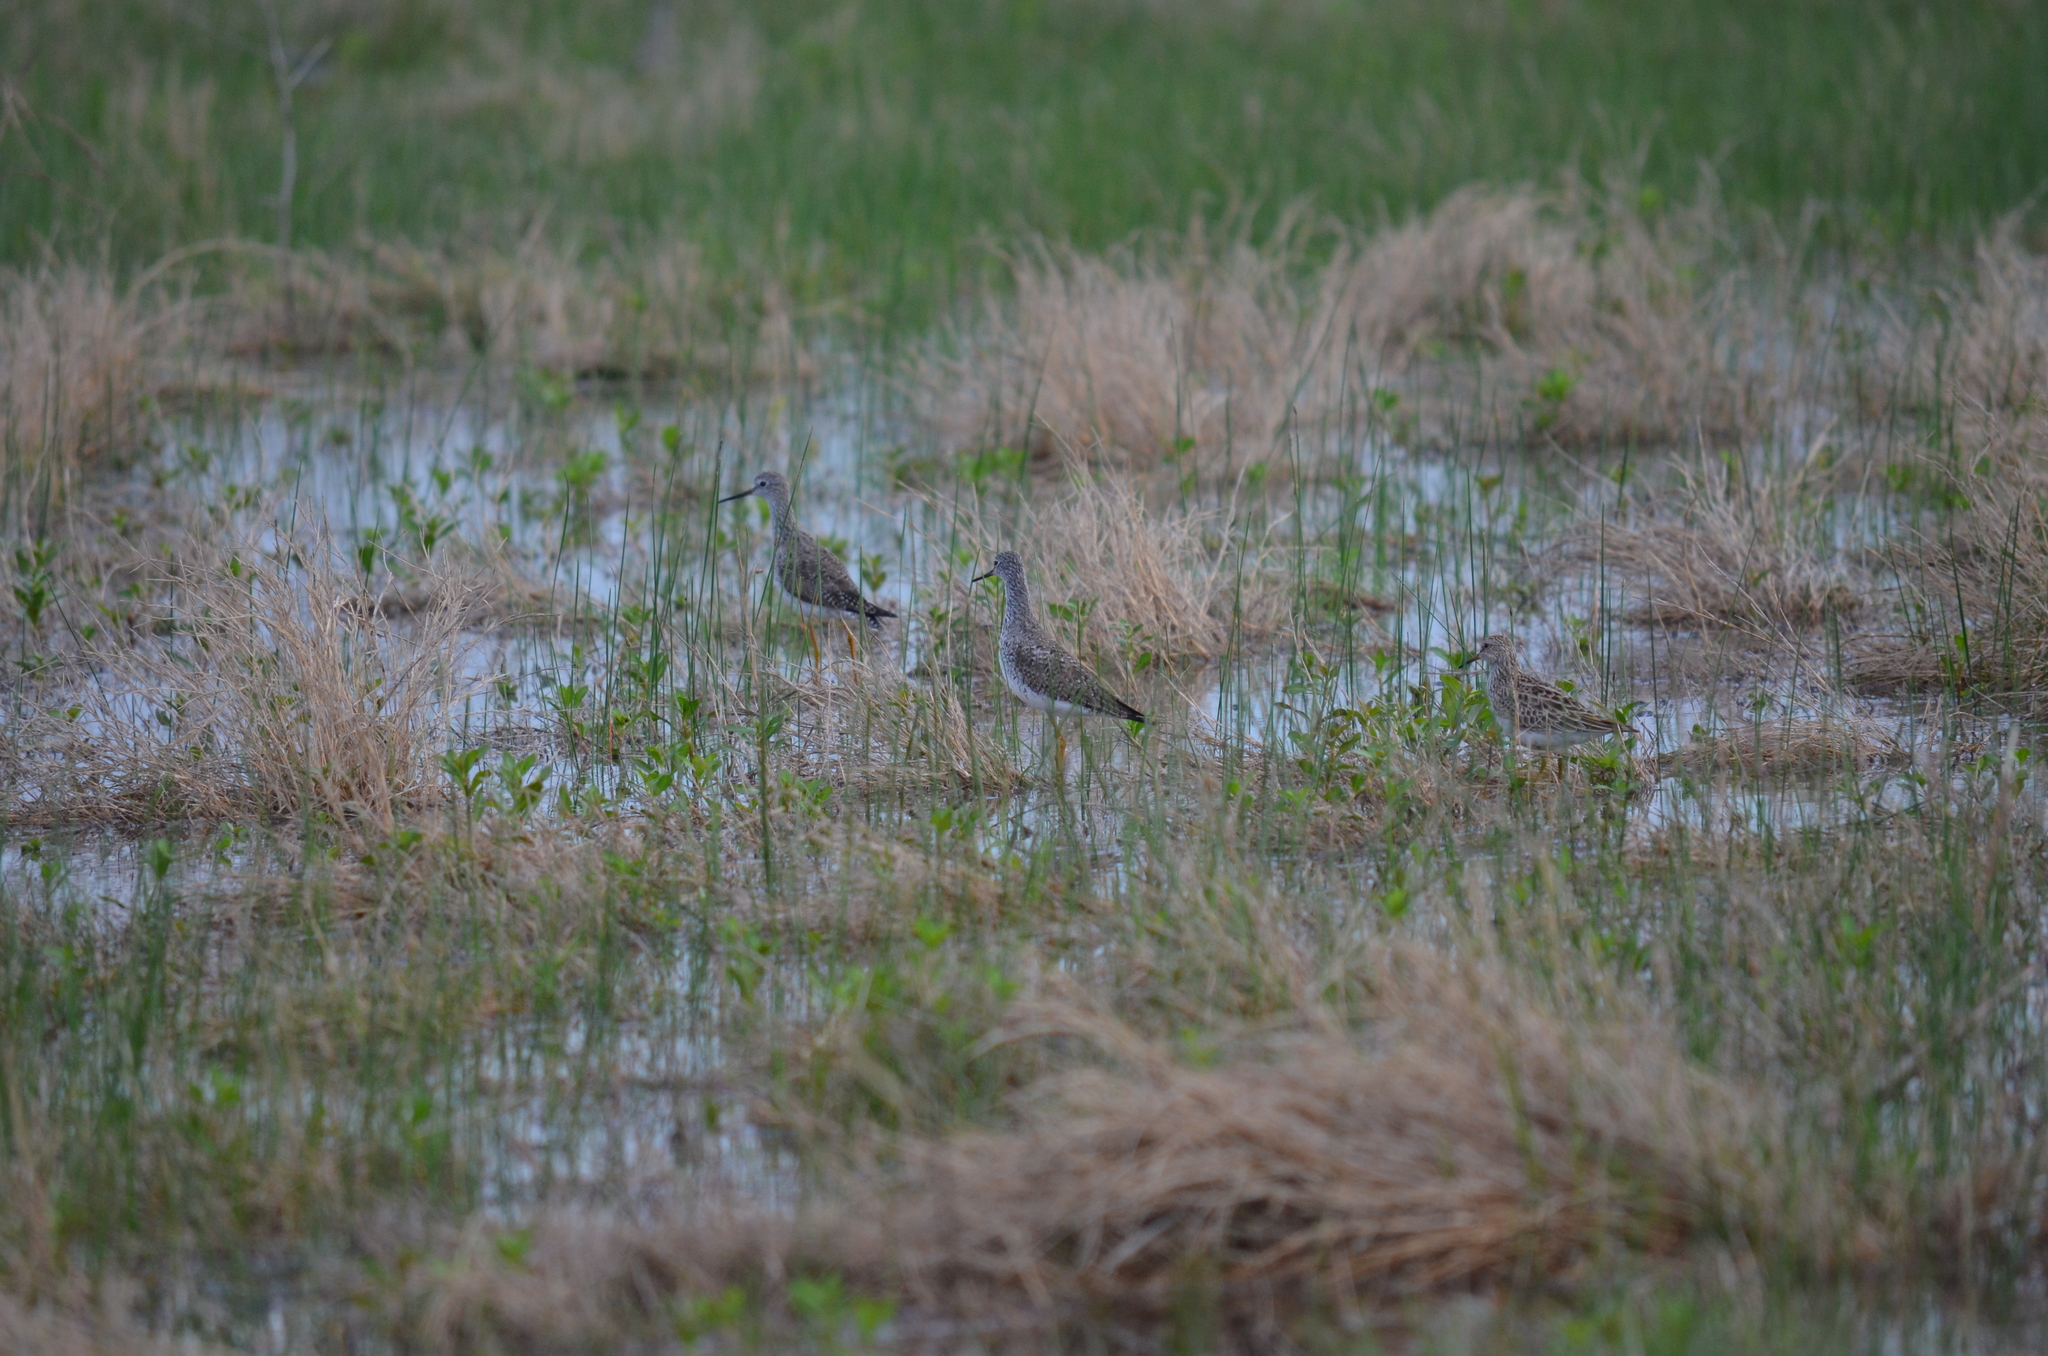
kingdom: Animalia
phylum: Chordata
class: Aves
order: Charadriiformes
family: Scolopacidae
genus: Calidris
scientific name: Calidris melanotos
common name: Pectoral sandpiper
